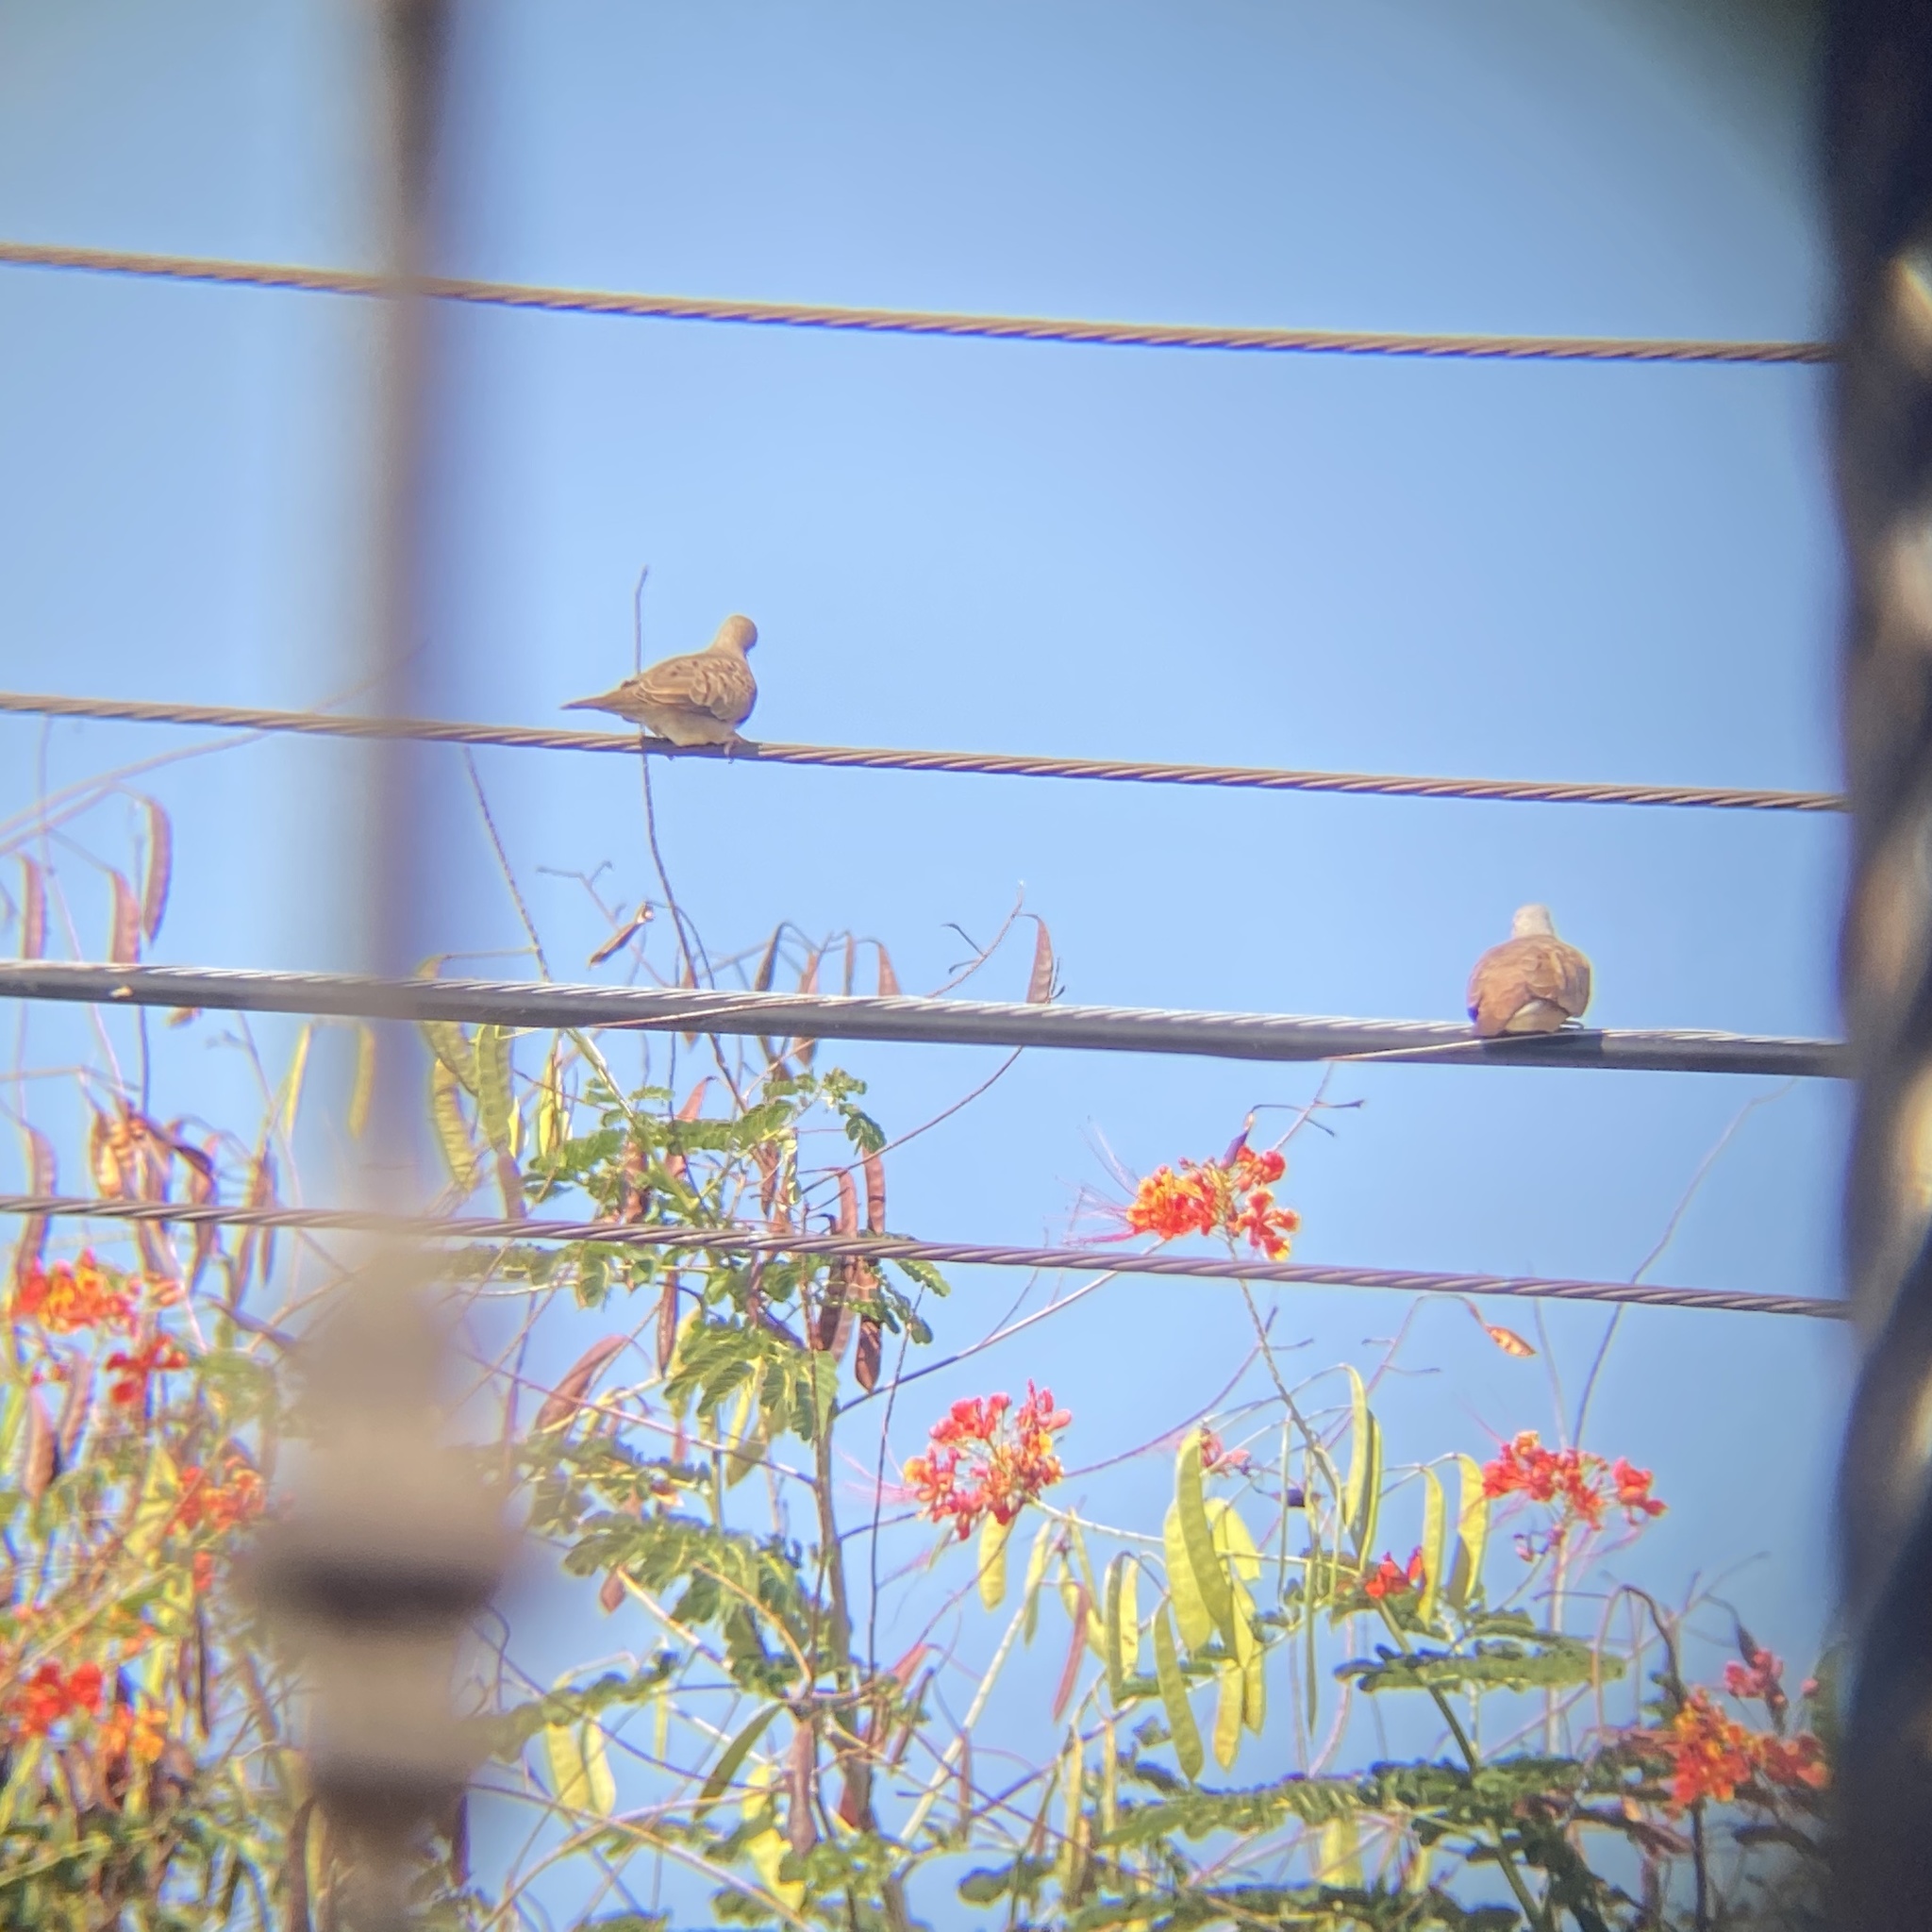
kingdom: Animalia
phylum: Chordata
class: Aves
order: Columbiformes
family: Columbidae
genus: Columbina
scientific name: Columbina talpacoti
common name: Ruddy ground dove
